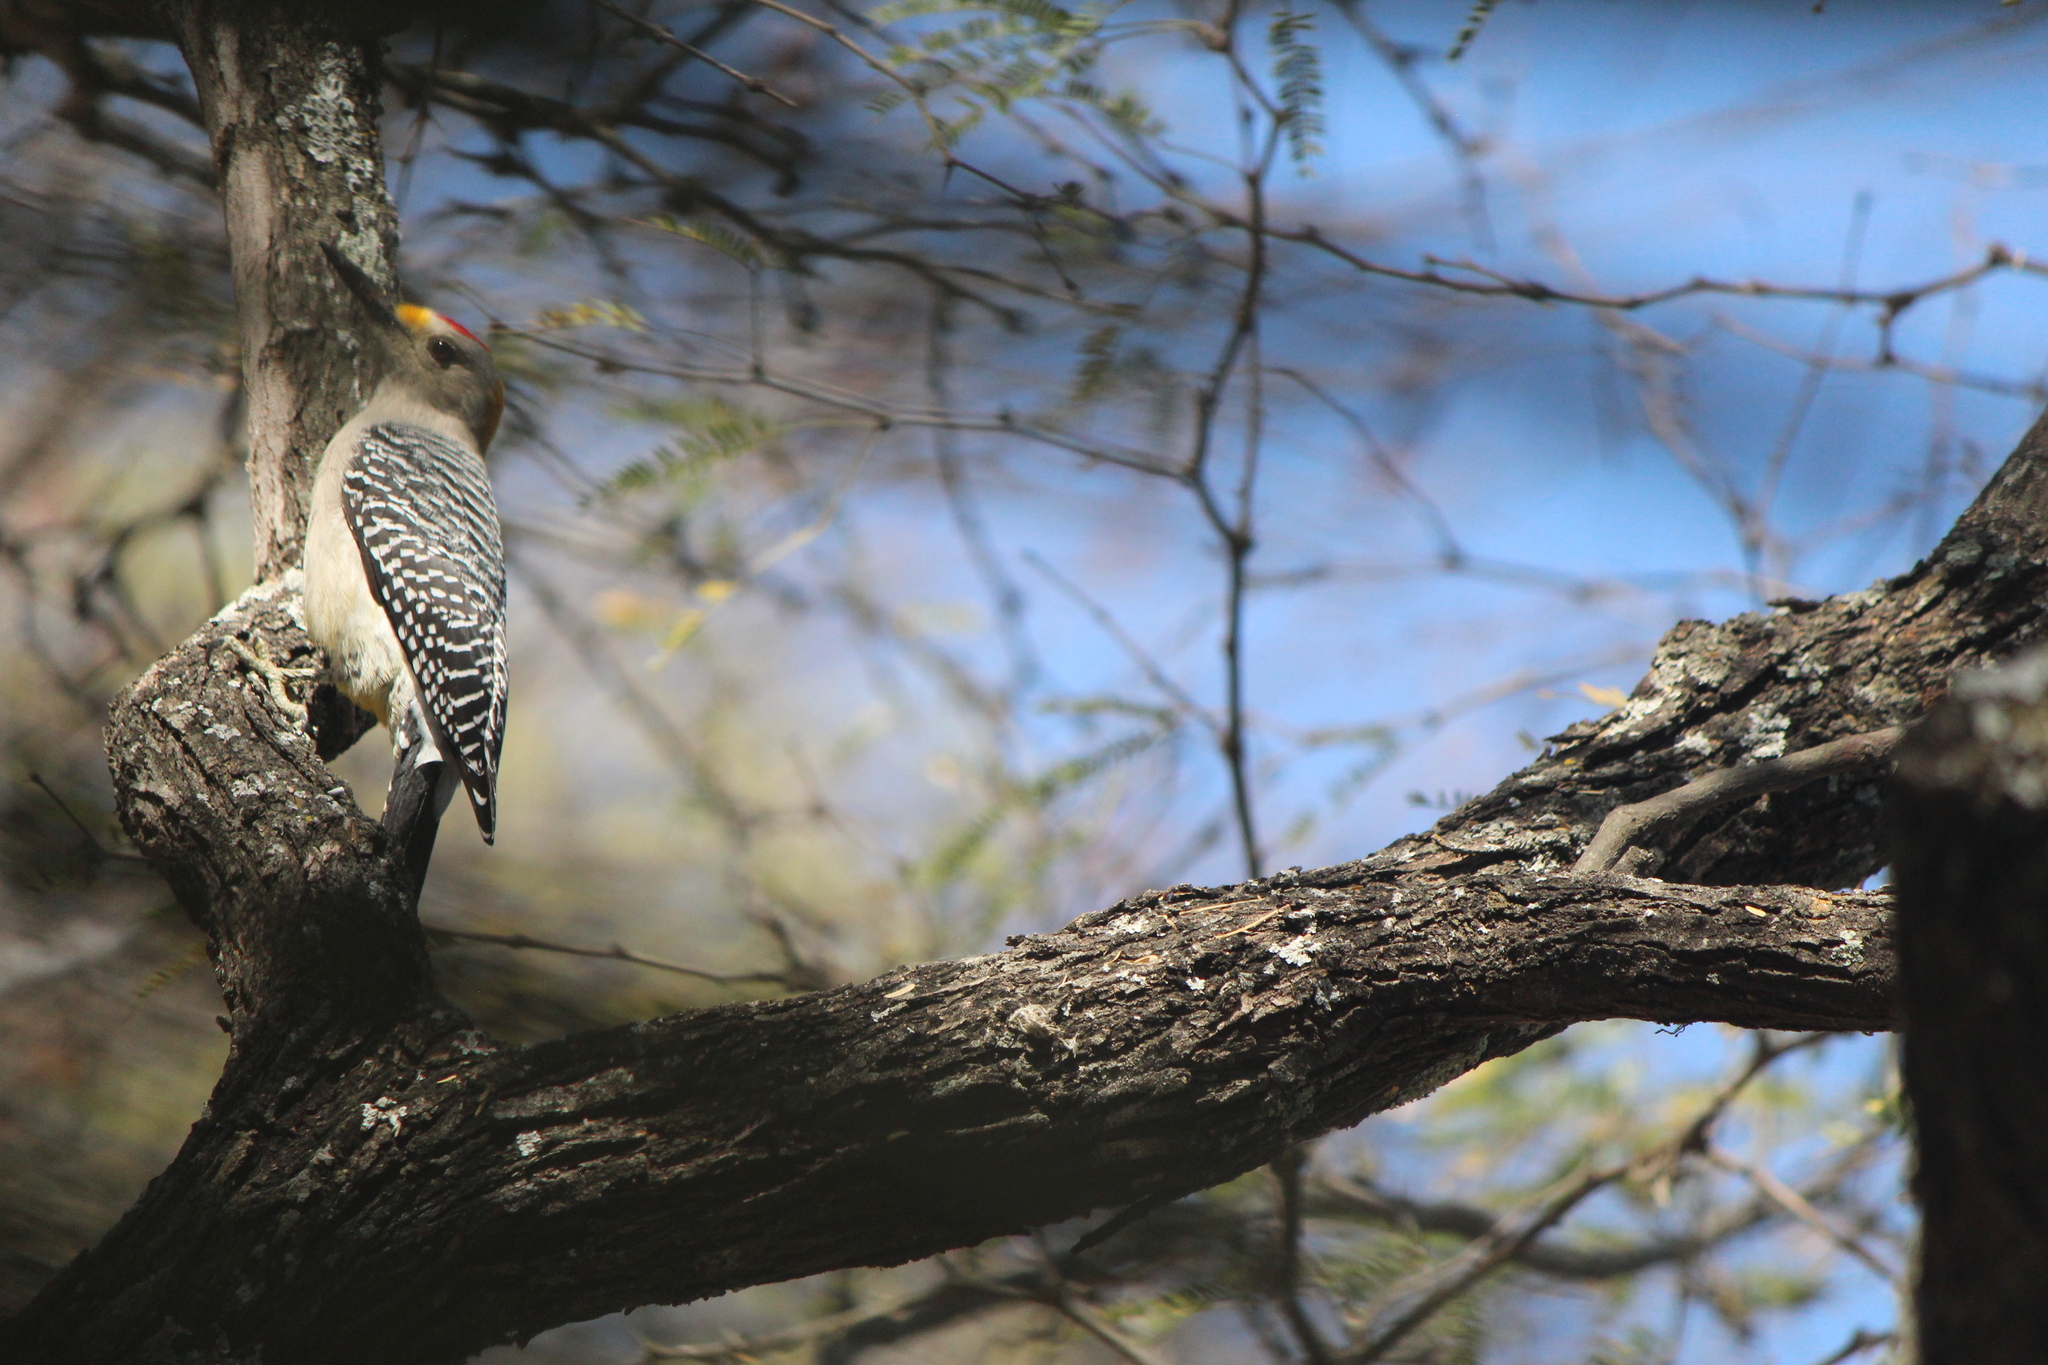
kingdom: Animalia
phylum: Chordata
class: Aves
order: Piciformes
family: Picidae
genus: Melanerpes
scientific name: Melanerpes aurifrons
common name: Golden-fronted woodpecker
